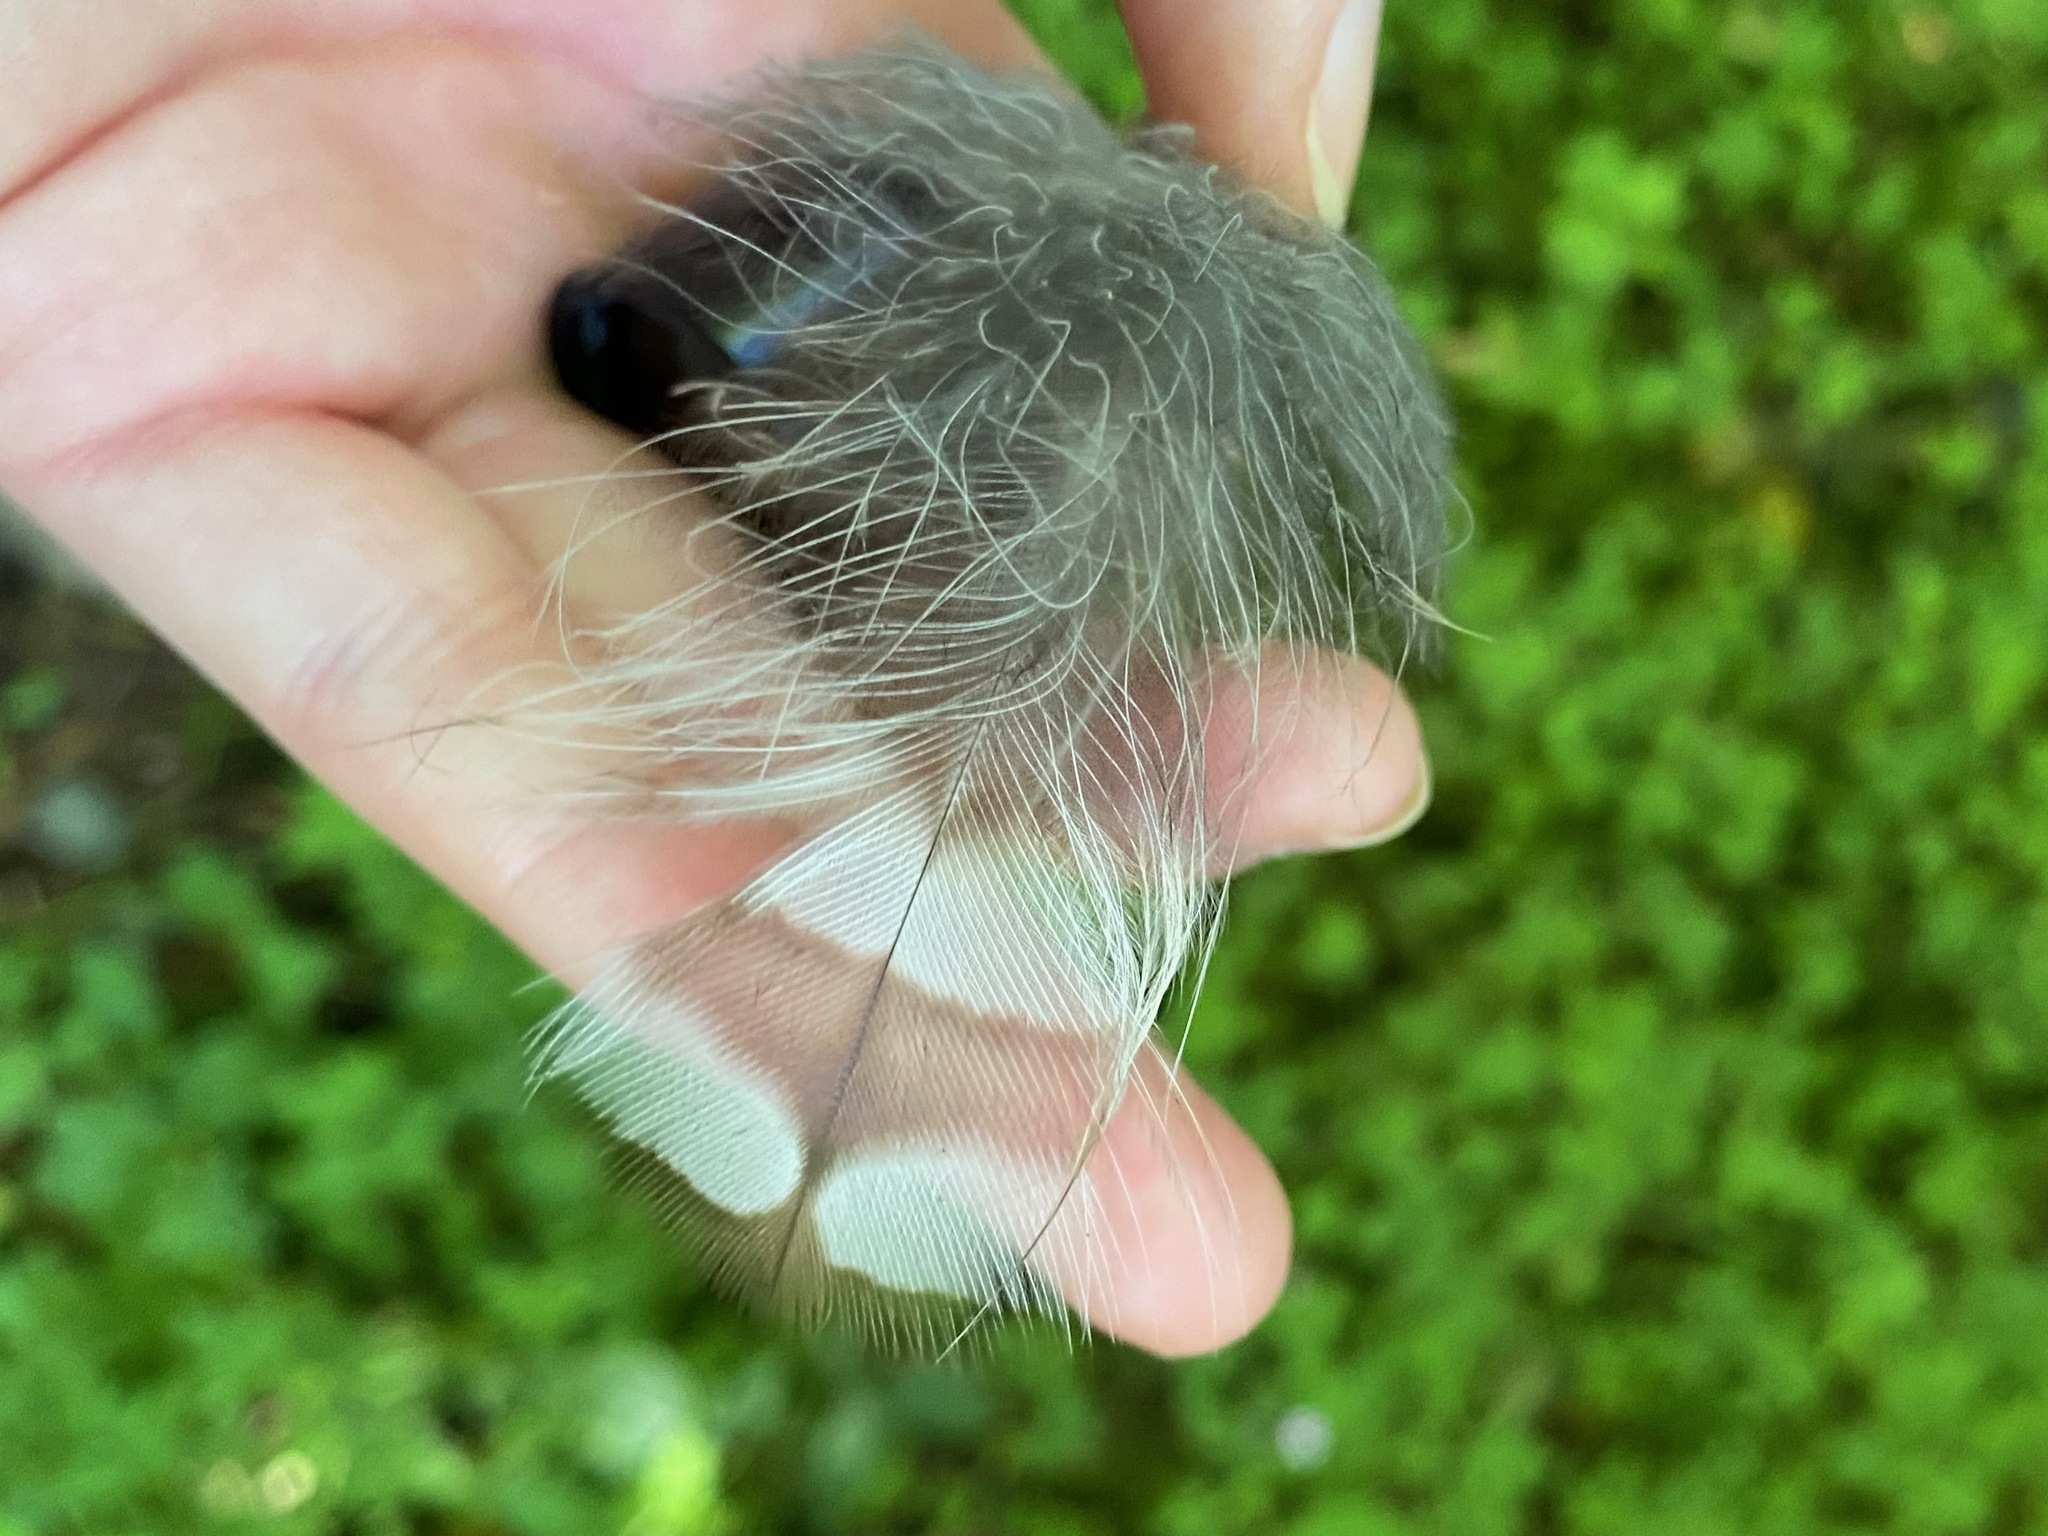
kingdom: Animalia
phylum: Chordata
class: Aves
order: Strigiformes
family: Strigidae
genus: Strix
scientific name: Strix varia
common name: Barred owl
